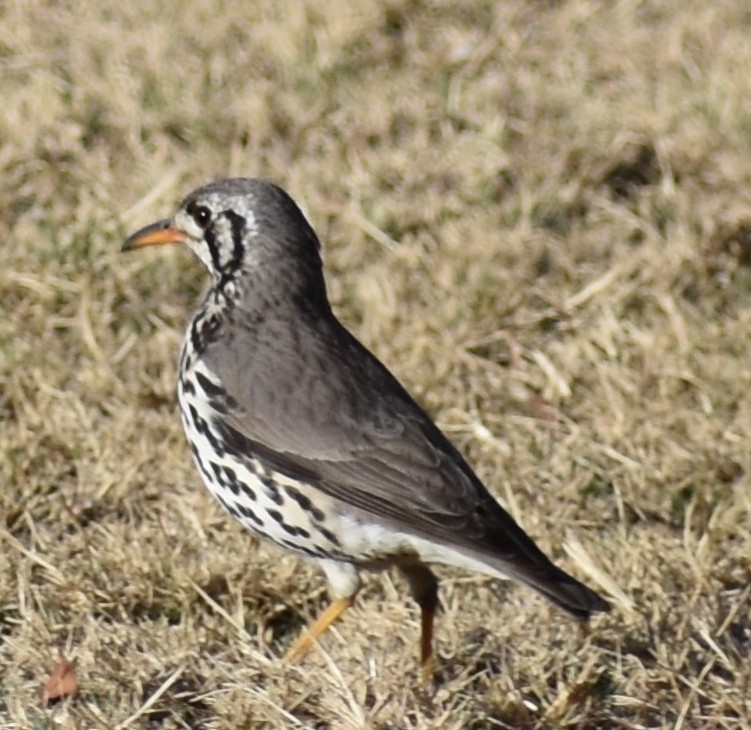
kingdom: Animalia
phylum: Chordata
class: Aves
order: Passeriformes
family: Turdidae
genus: Psophocichla
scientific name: Psophocichla litsitsirupa
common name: Groundscraper thrush
